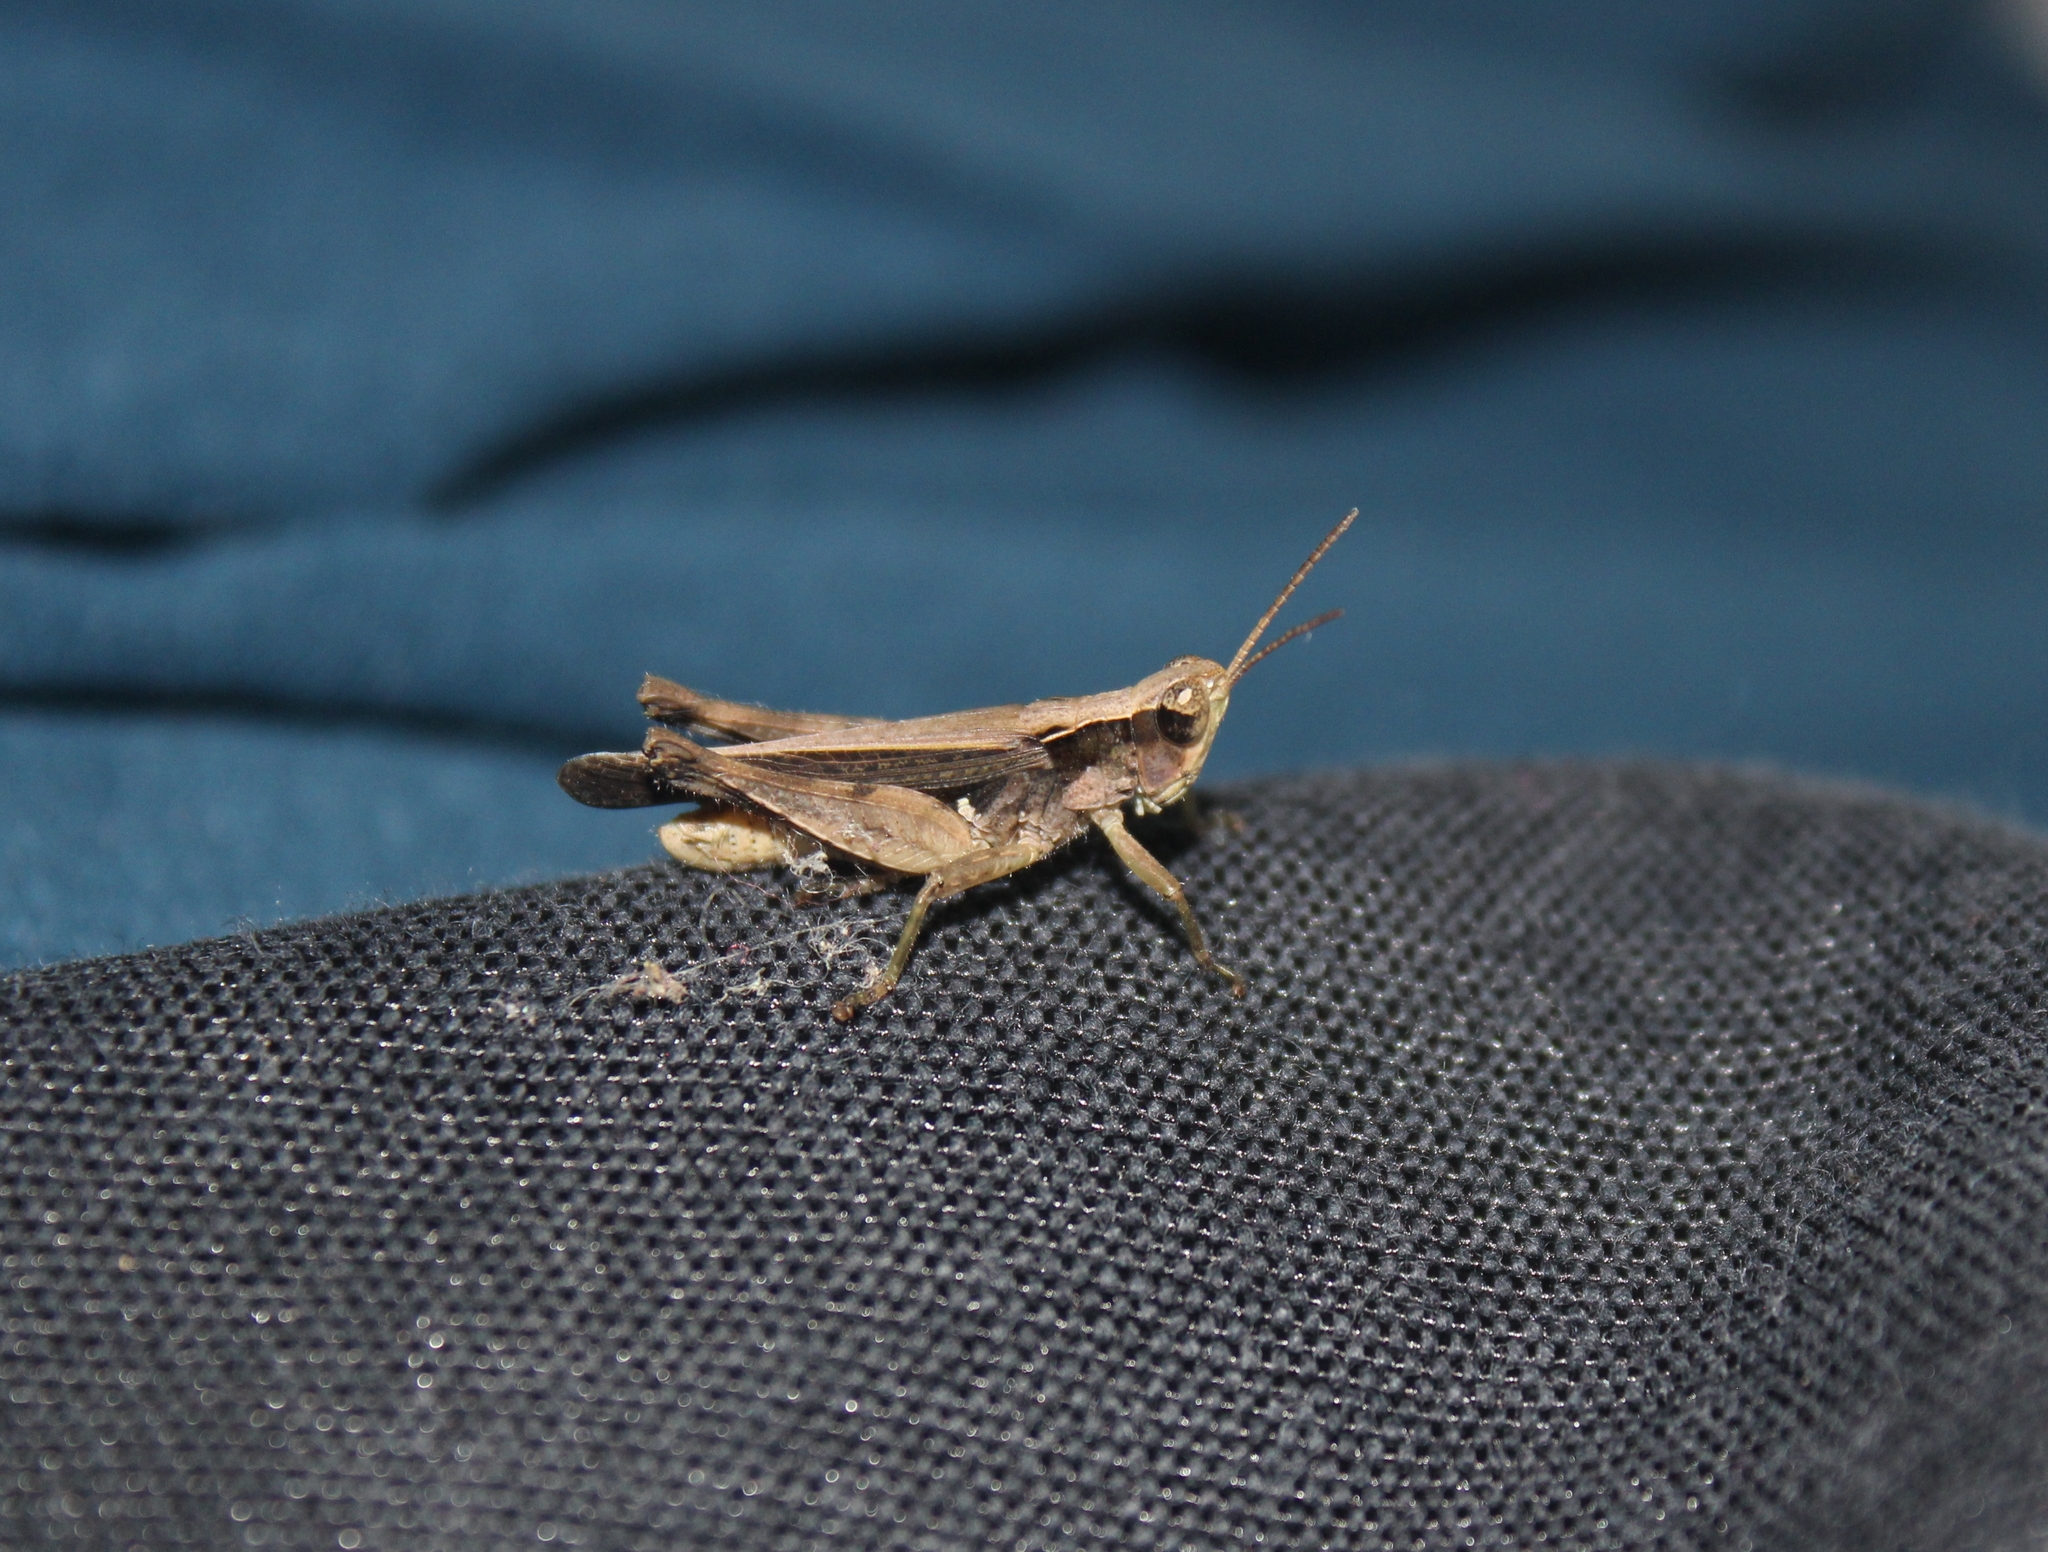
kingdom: Animalia
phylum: Arthropoda
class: Insecta
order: Orthoptera
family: Acrididae
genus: Orphulella
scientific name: Orphulella punctata
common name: Slant-faced grasshopper
